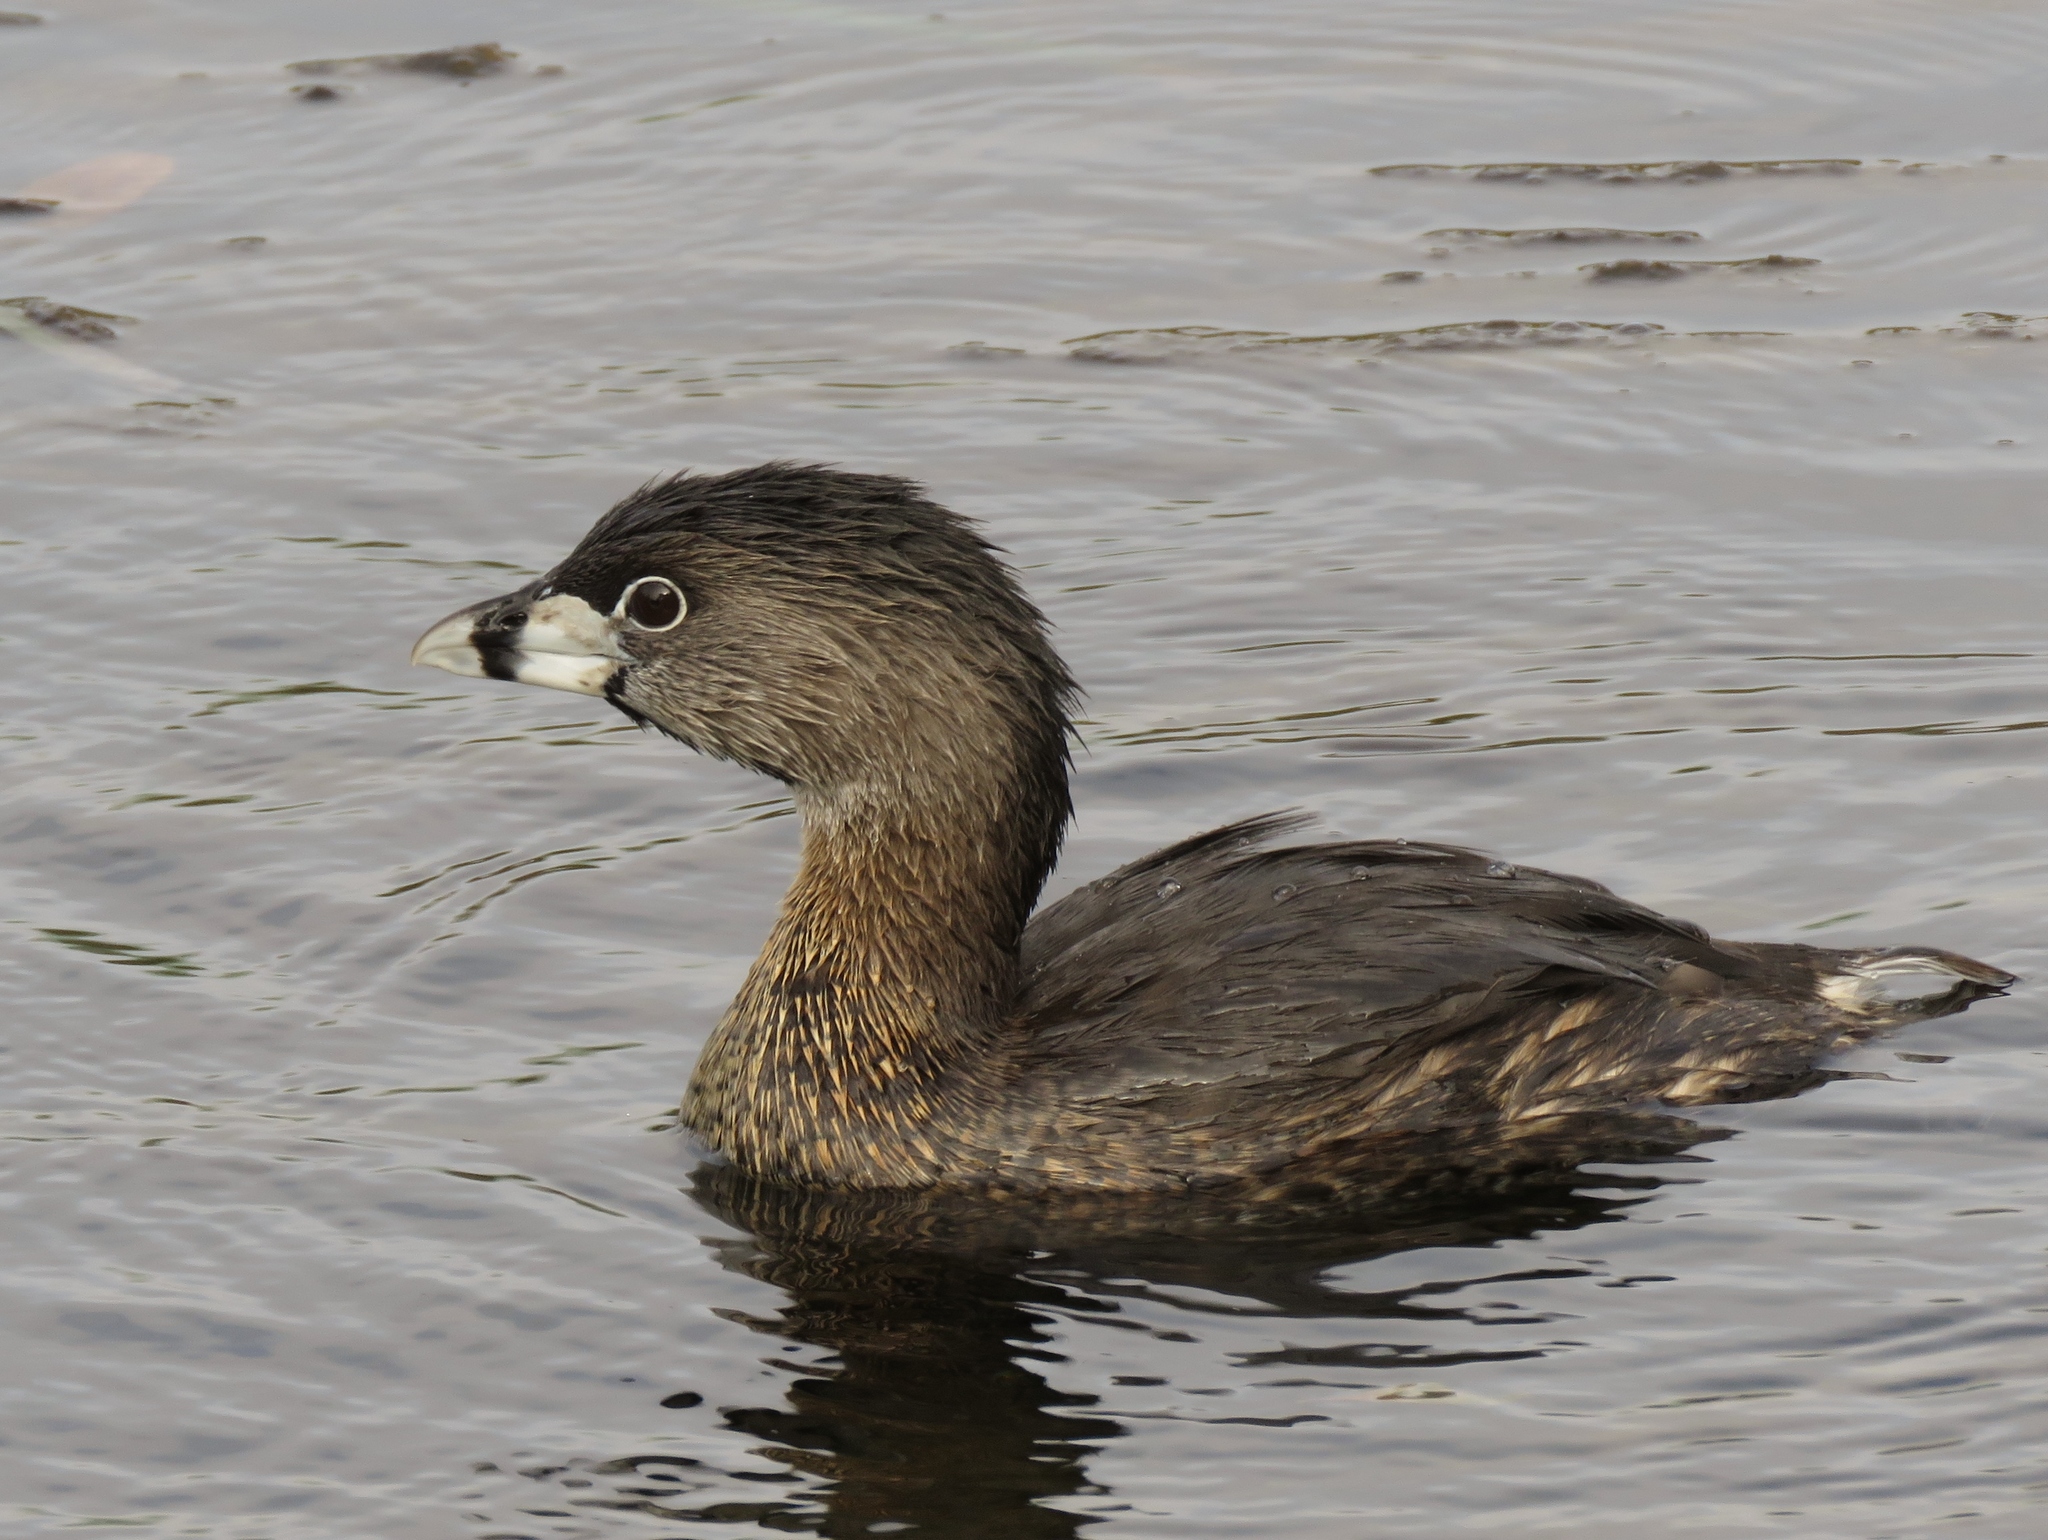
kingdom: Animalia
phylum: Chordata
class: Aves
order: Podicipediformes
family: Podicipedidae
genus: Podilymbus
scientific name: Podilymbus podiceps
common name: Pied-billed grebe
